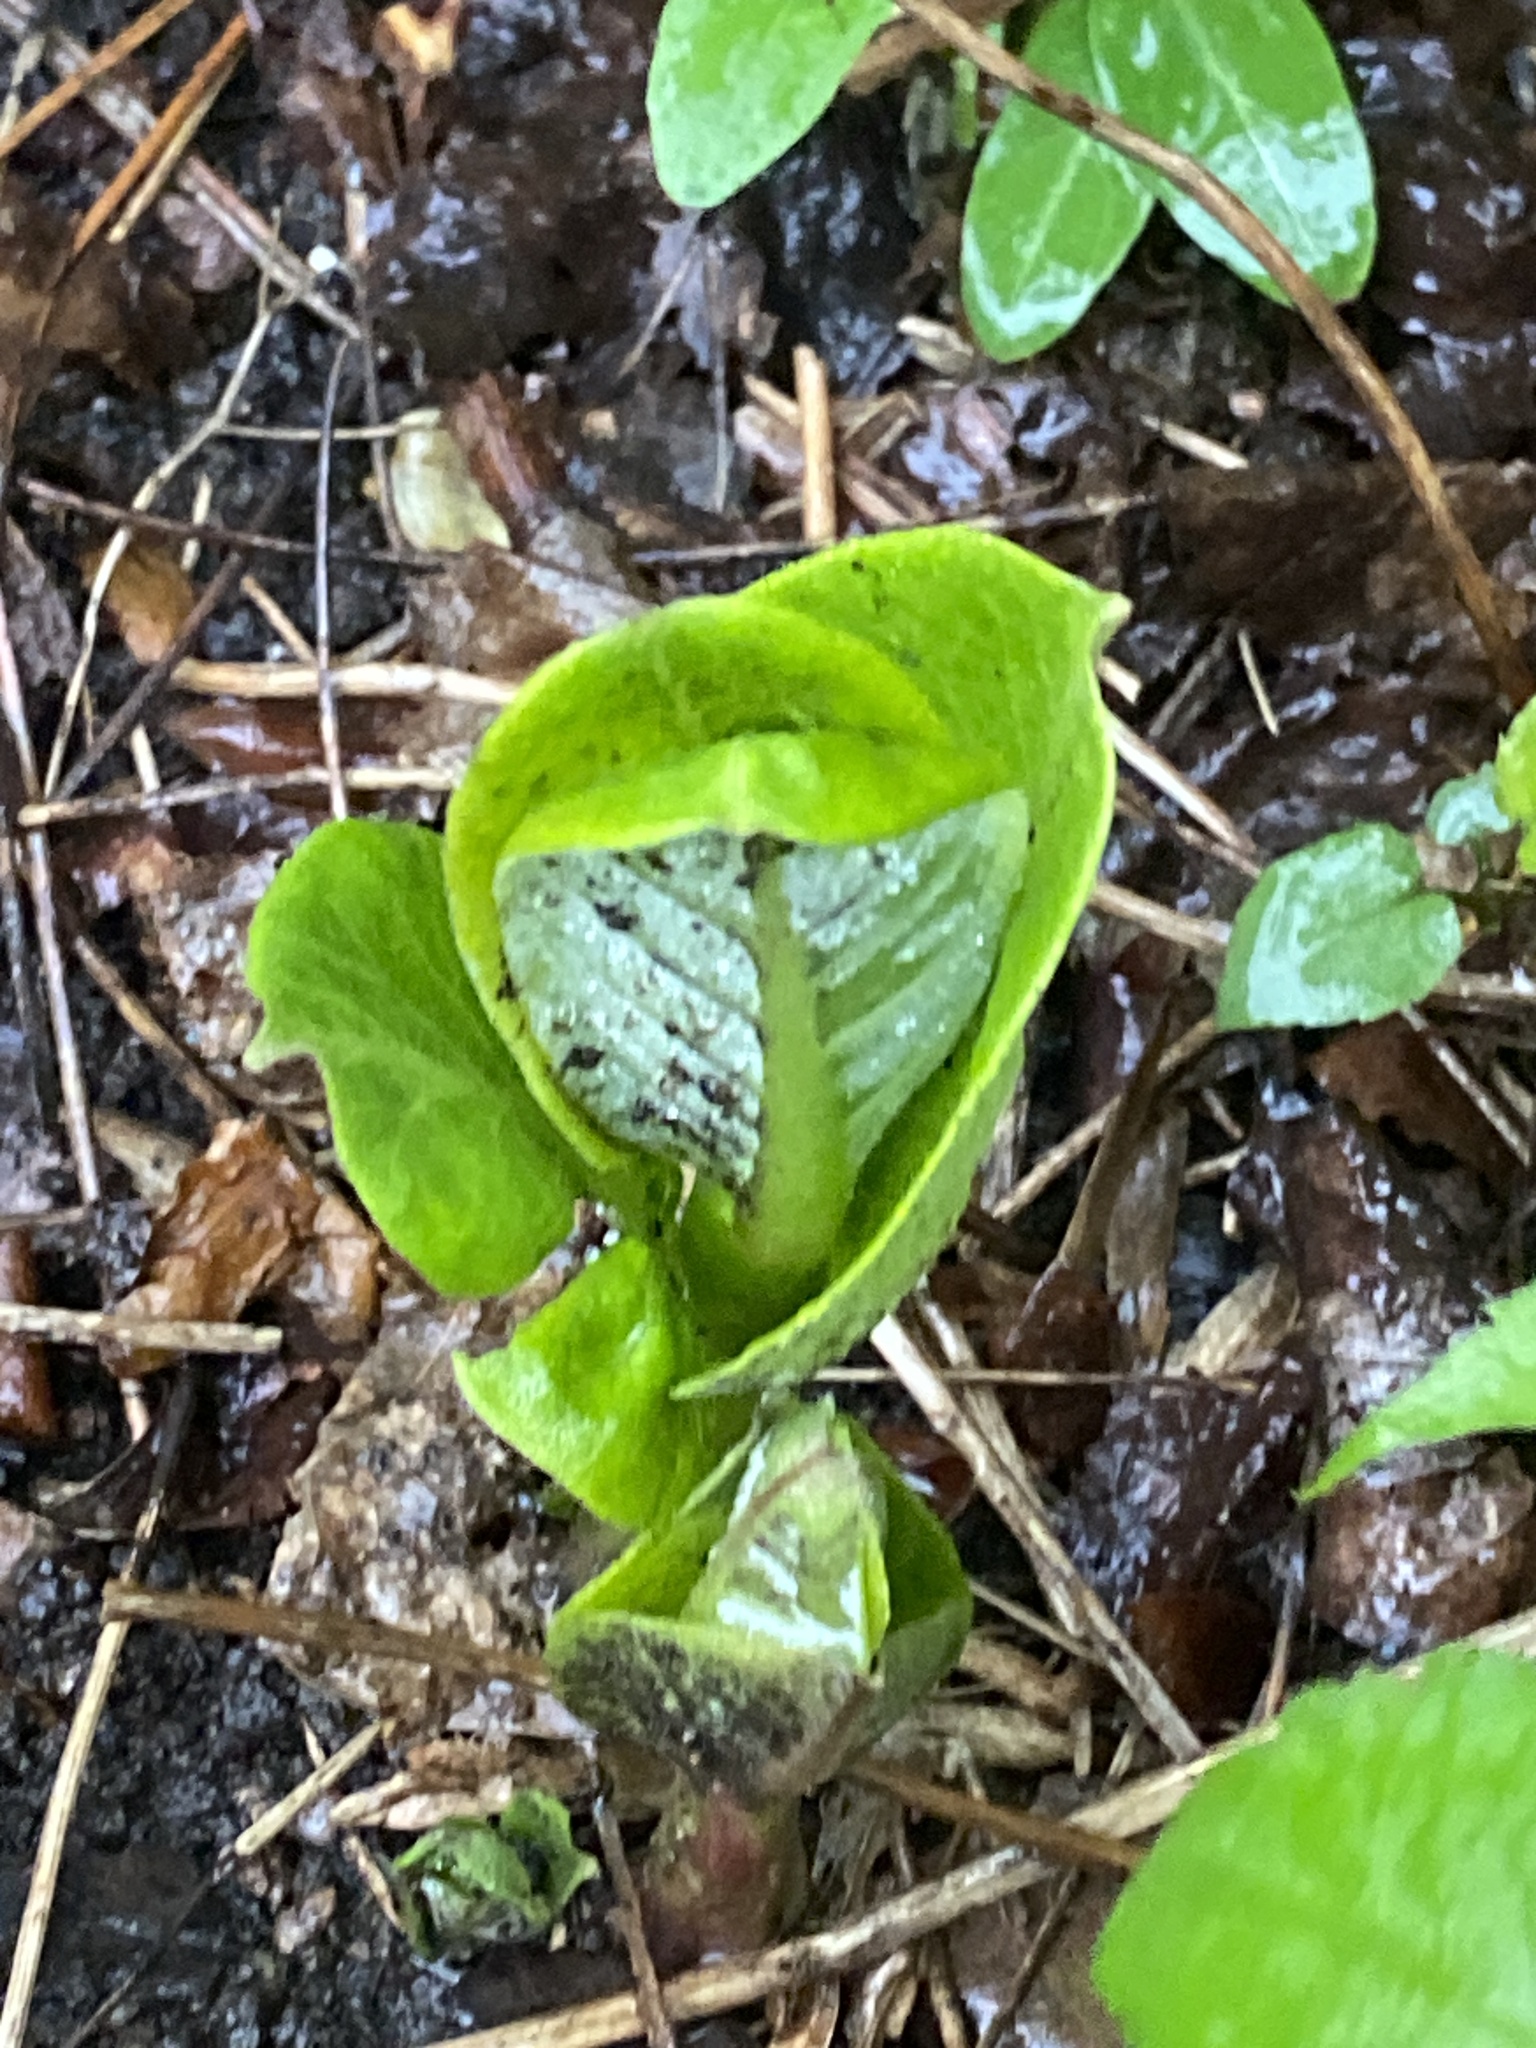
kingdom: Plantae
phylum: Tracheophyta
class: Magnoliopsida
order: Gentianales
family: Apocynaceae
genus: Asclepias
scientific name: Asclepias syriaca
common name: Common milkweed
